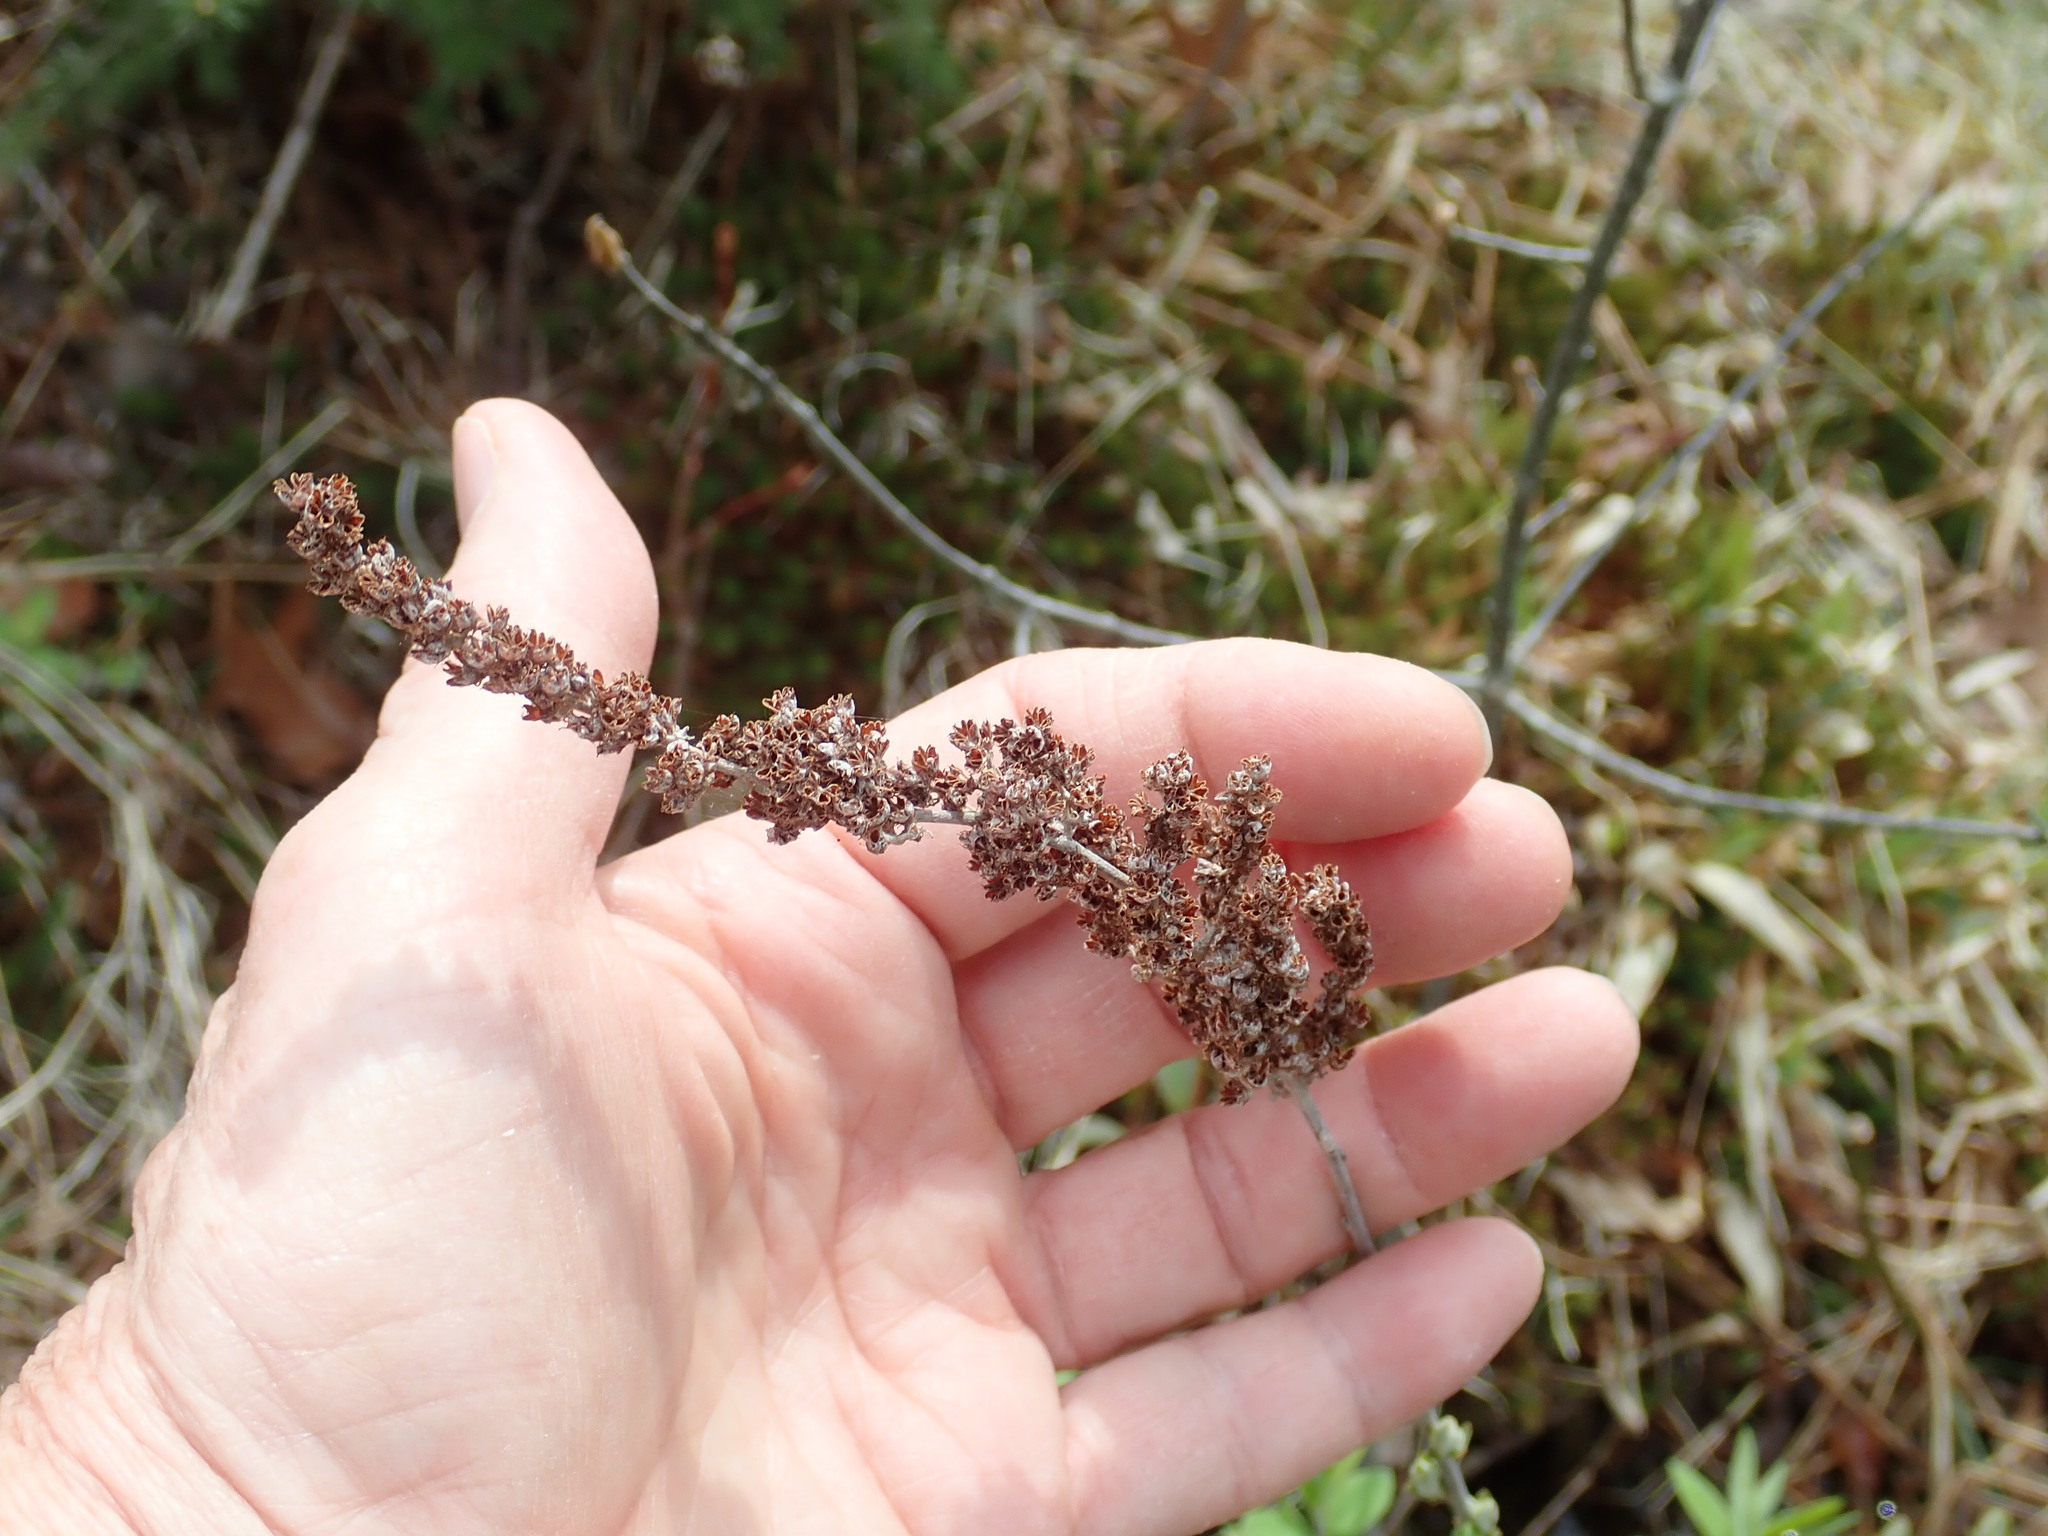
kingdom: Plantae
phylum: Tracheophyta
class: Magnoliopsida
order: Rosales
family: Rosaceae
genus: Spiraea
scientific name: Spiraea tomentosa
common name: Hardhack
